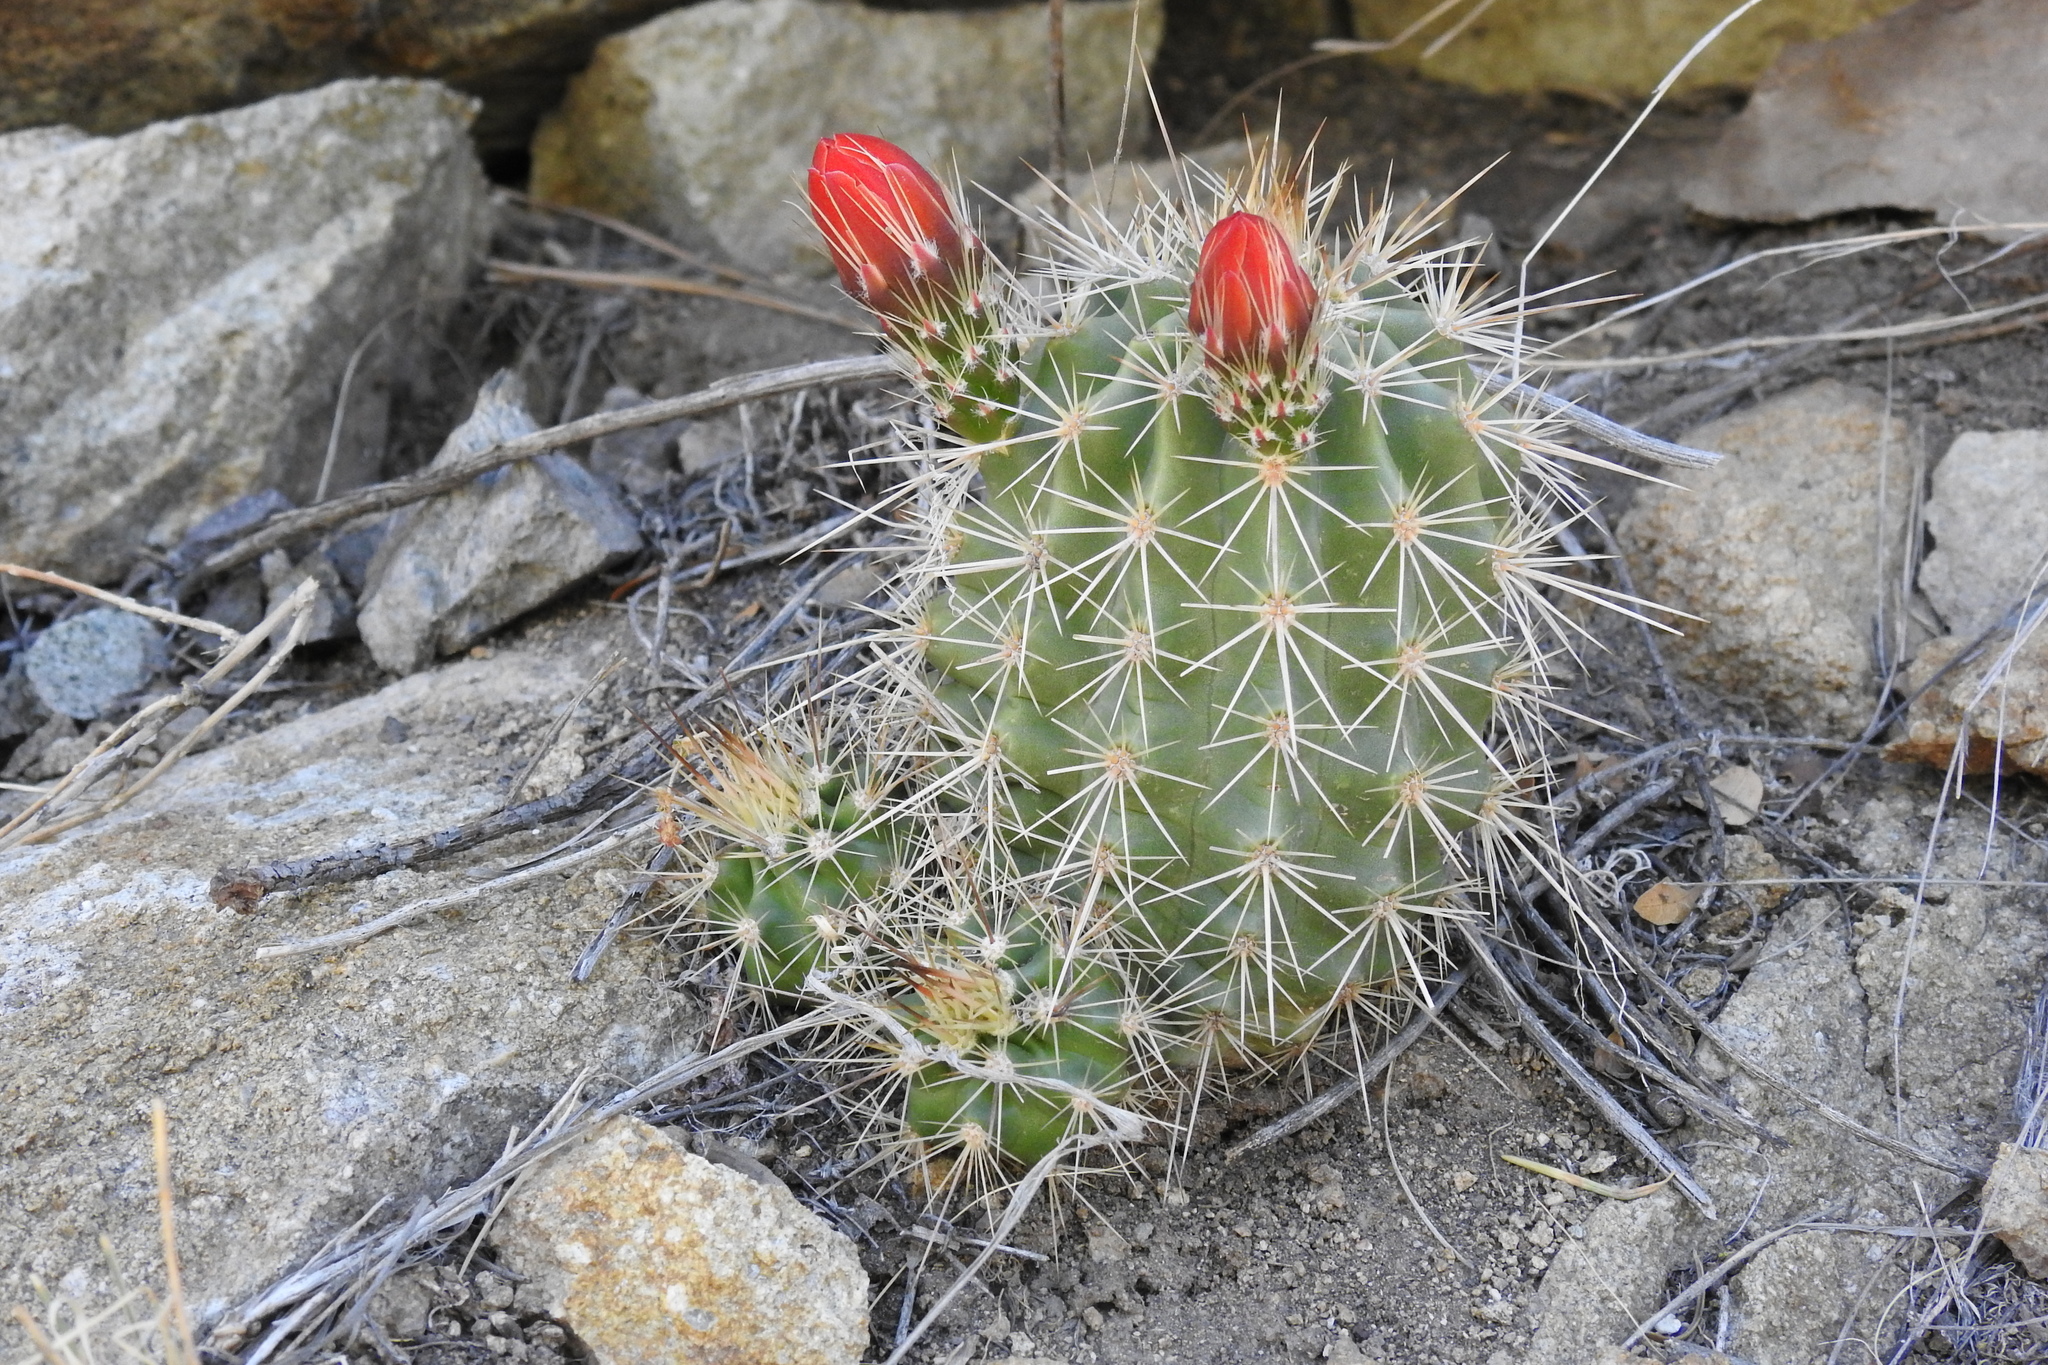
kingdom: Plantae
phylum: Tracheophyta
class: Magnoliopsida
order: Caryophyllales
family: Cactaceae
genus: Echinocereus
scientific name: Echinocereus coccineus
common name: Scarlet hedgehog cactus
